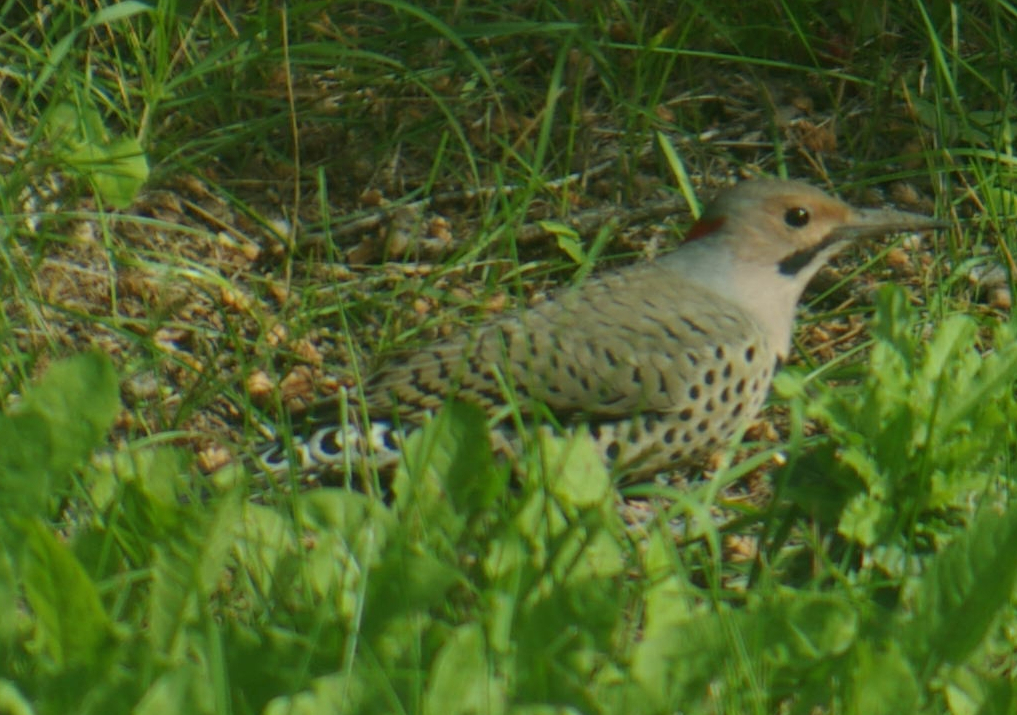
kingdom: Animalia
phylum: Chordata
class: Aves
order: Piciformes
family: Picidae
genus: Colaptes
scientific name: Colaptes auratus
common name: Northern flicker
